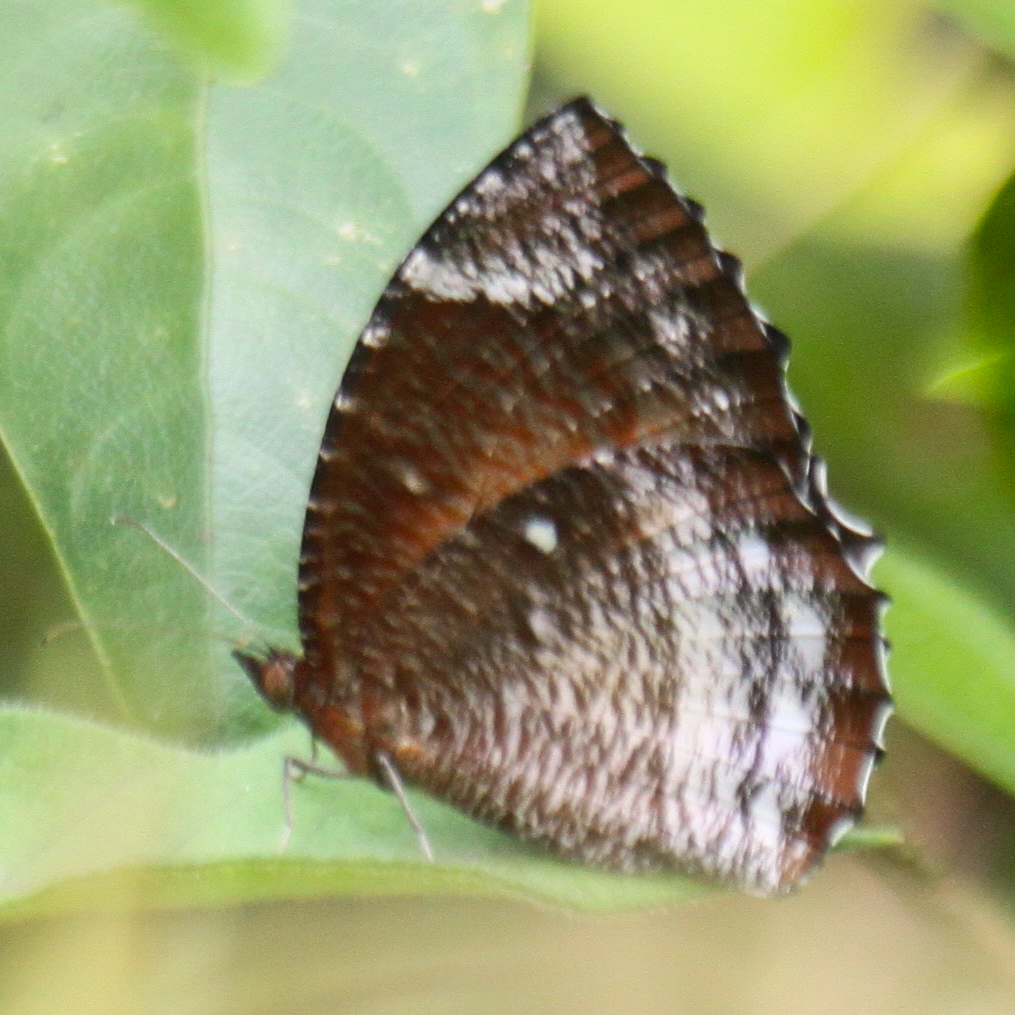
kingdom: Animalia
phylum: Arthropoda
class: Insecta
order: Lepidoptera
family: Nymphalidae
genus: Elymnias
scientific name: Elymnias hypermnestra
